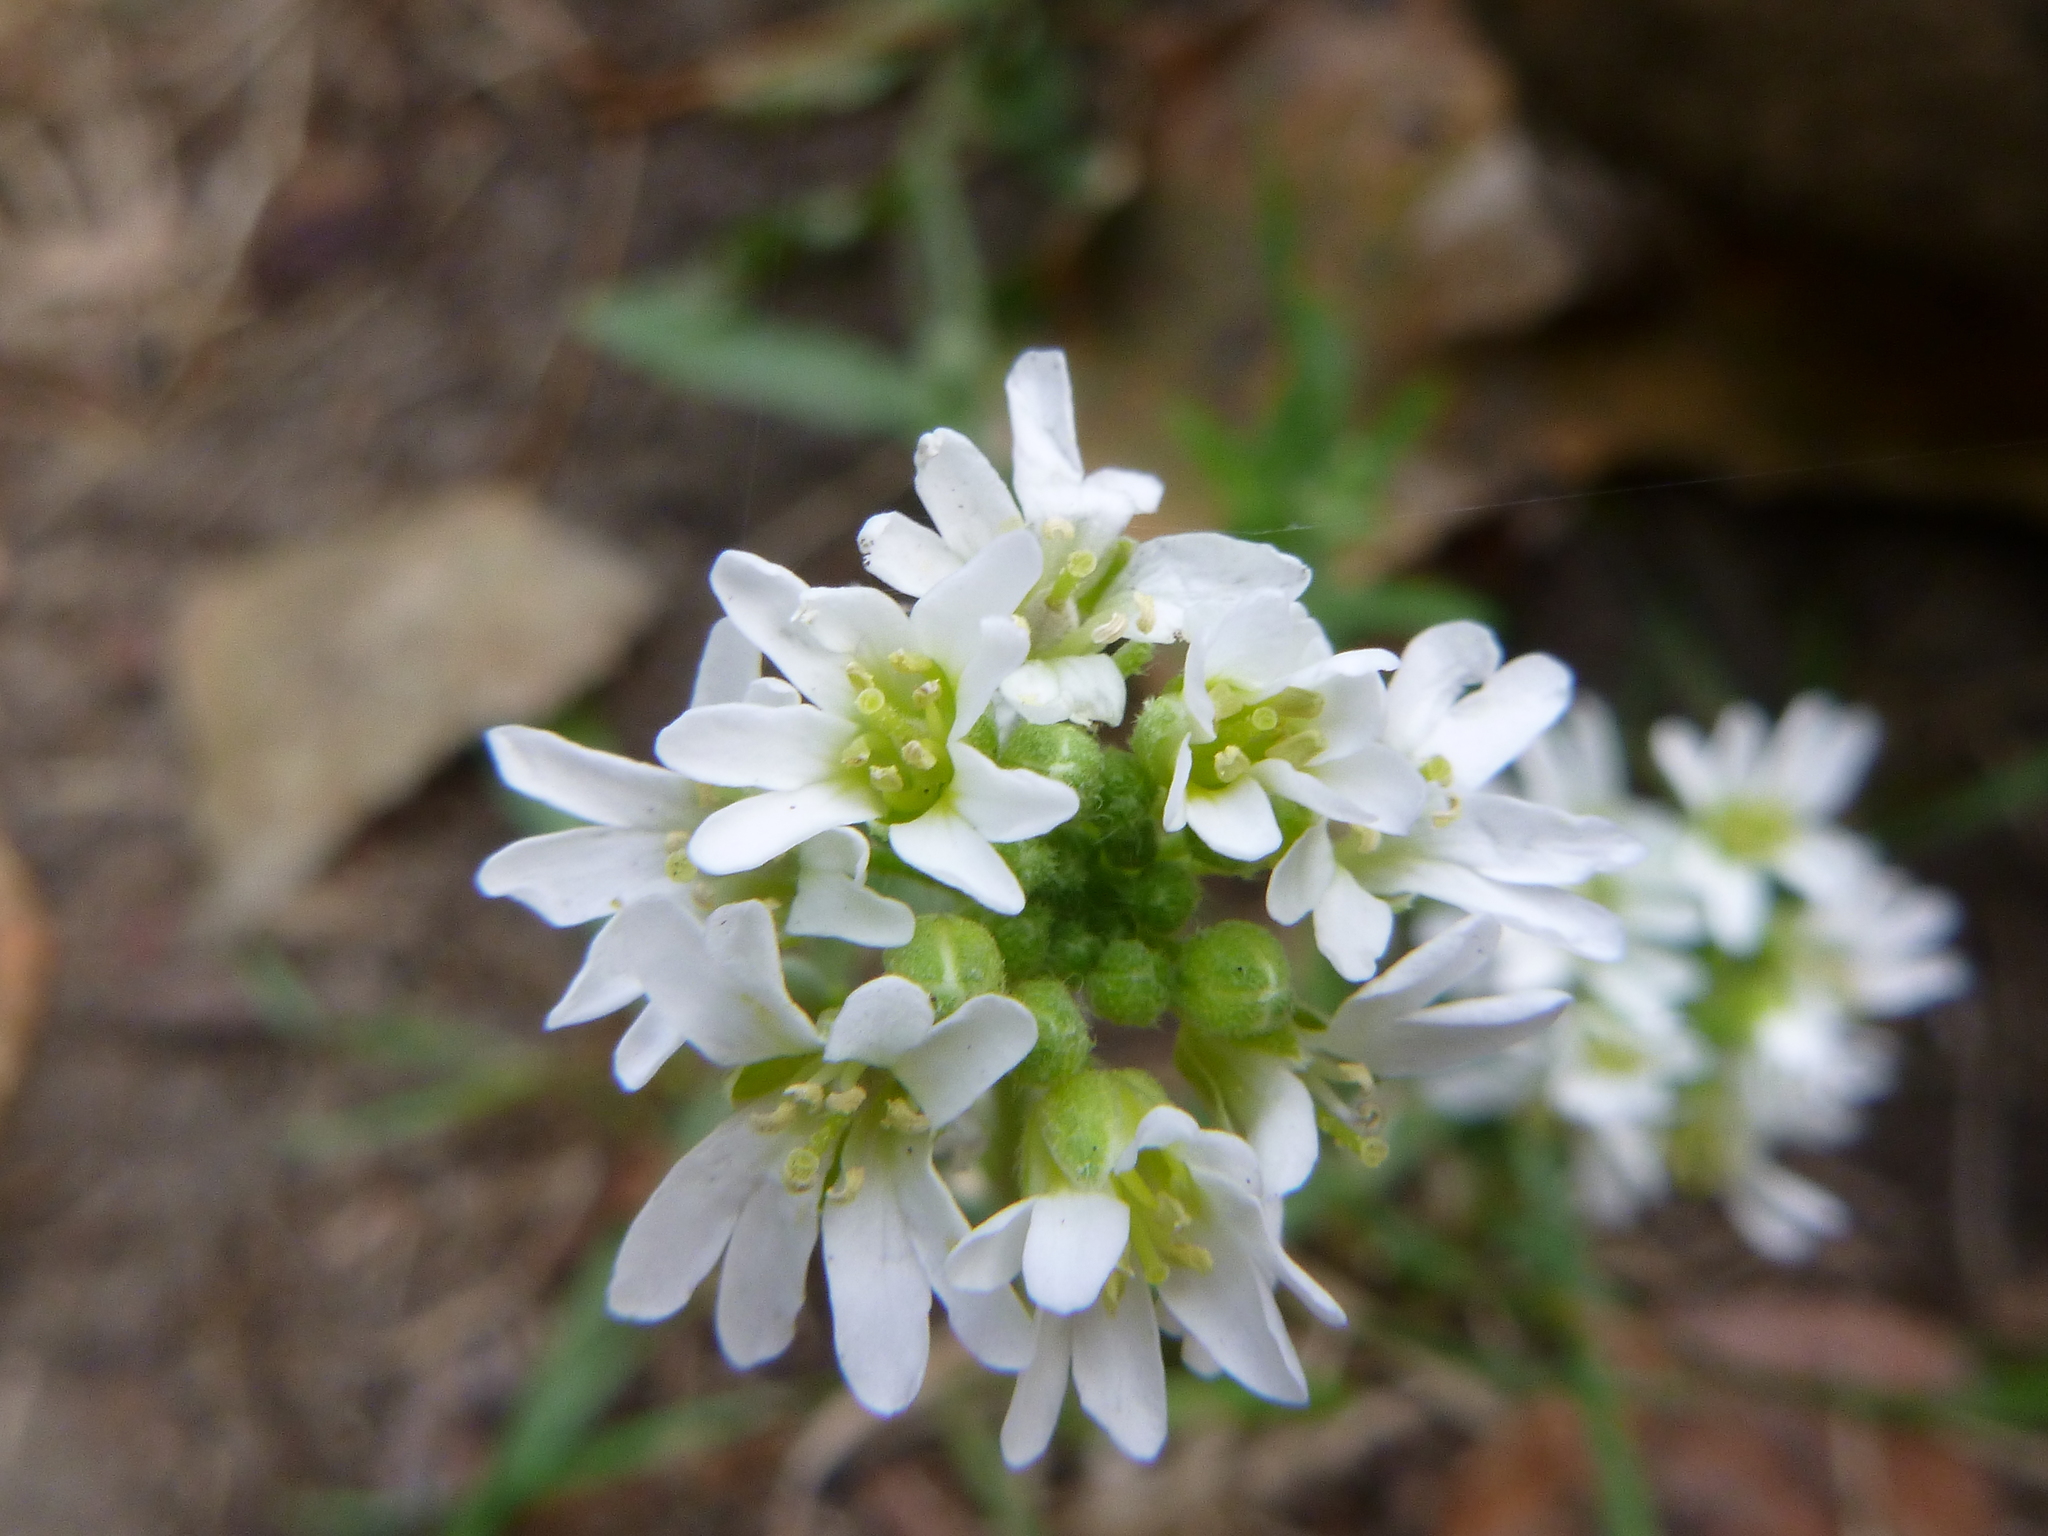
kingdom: Plantae
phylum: Tracheophyta
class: Magnoliopsida
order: Brassicales
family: Brassicaceae
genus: Berteroa
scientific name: Berteroa incana
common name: Hoary alison
